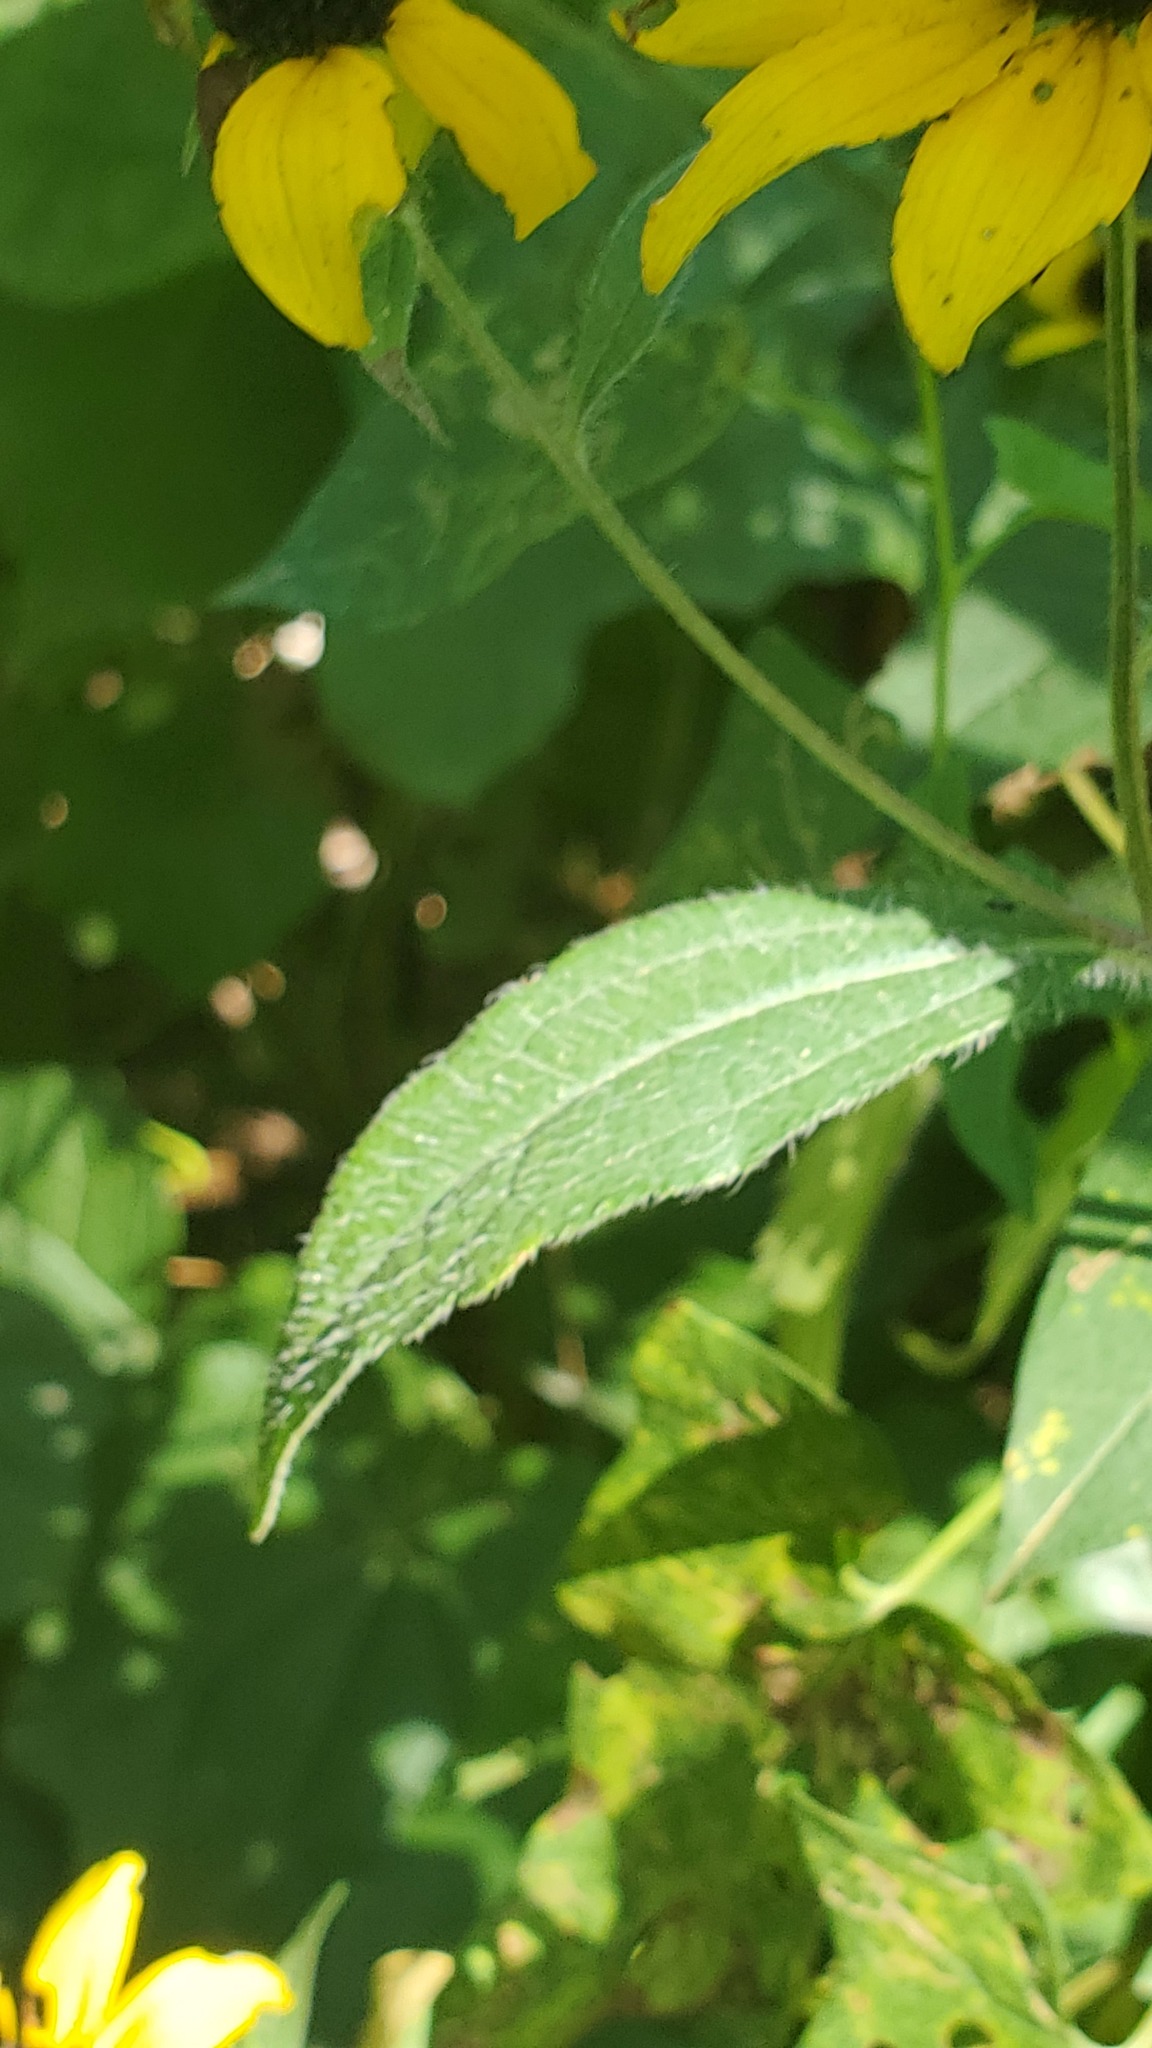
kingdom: Plantae
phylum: Tracheophyta
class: Magnoliopsida
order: Asterales
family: Asteraceae
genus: Rudbeckia
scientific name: Rudbeckia triloba
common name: Thin-leaved coneflower
